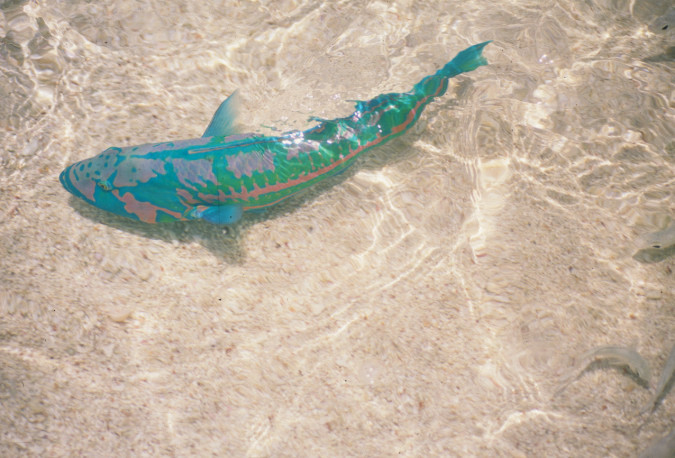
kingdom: Animalia
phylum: Chordata
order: Perciformes
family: Labridae
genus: Thalassoma
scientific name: Thalassoma purpureum
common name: Parrotfish
